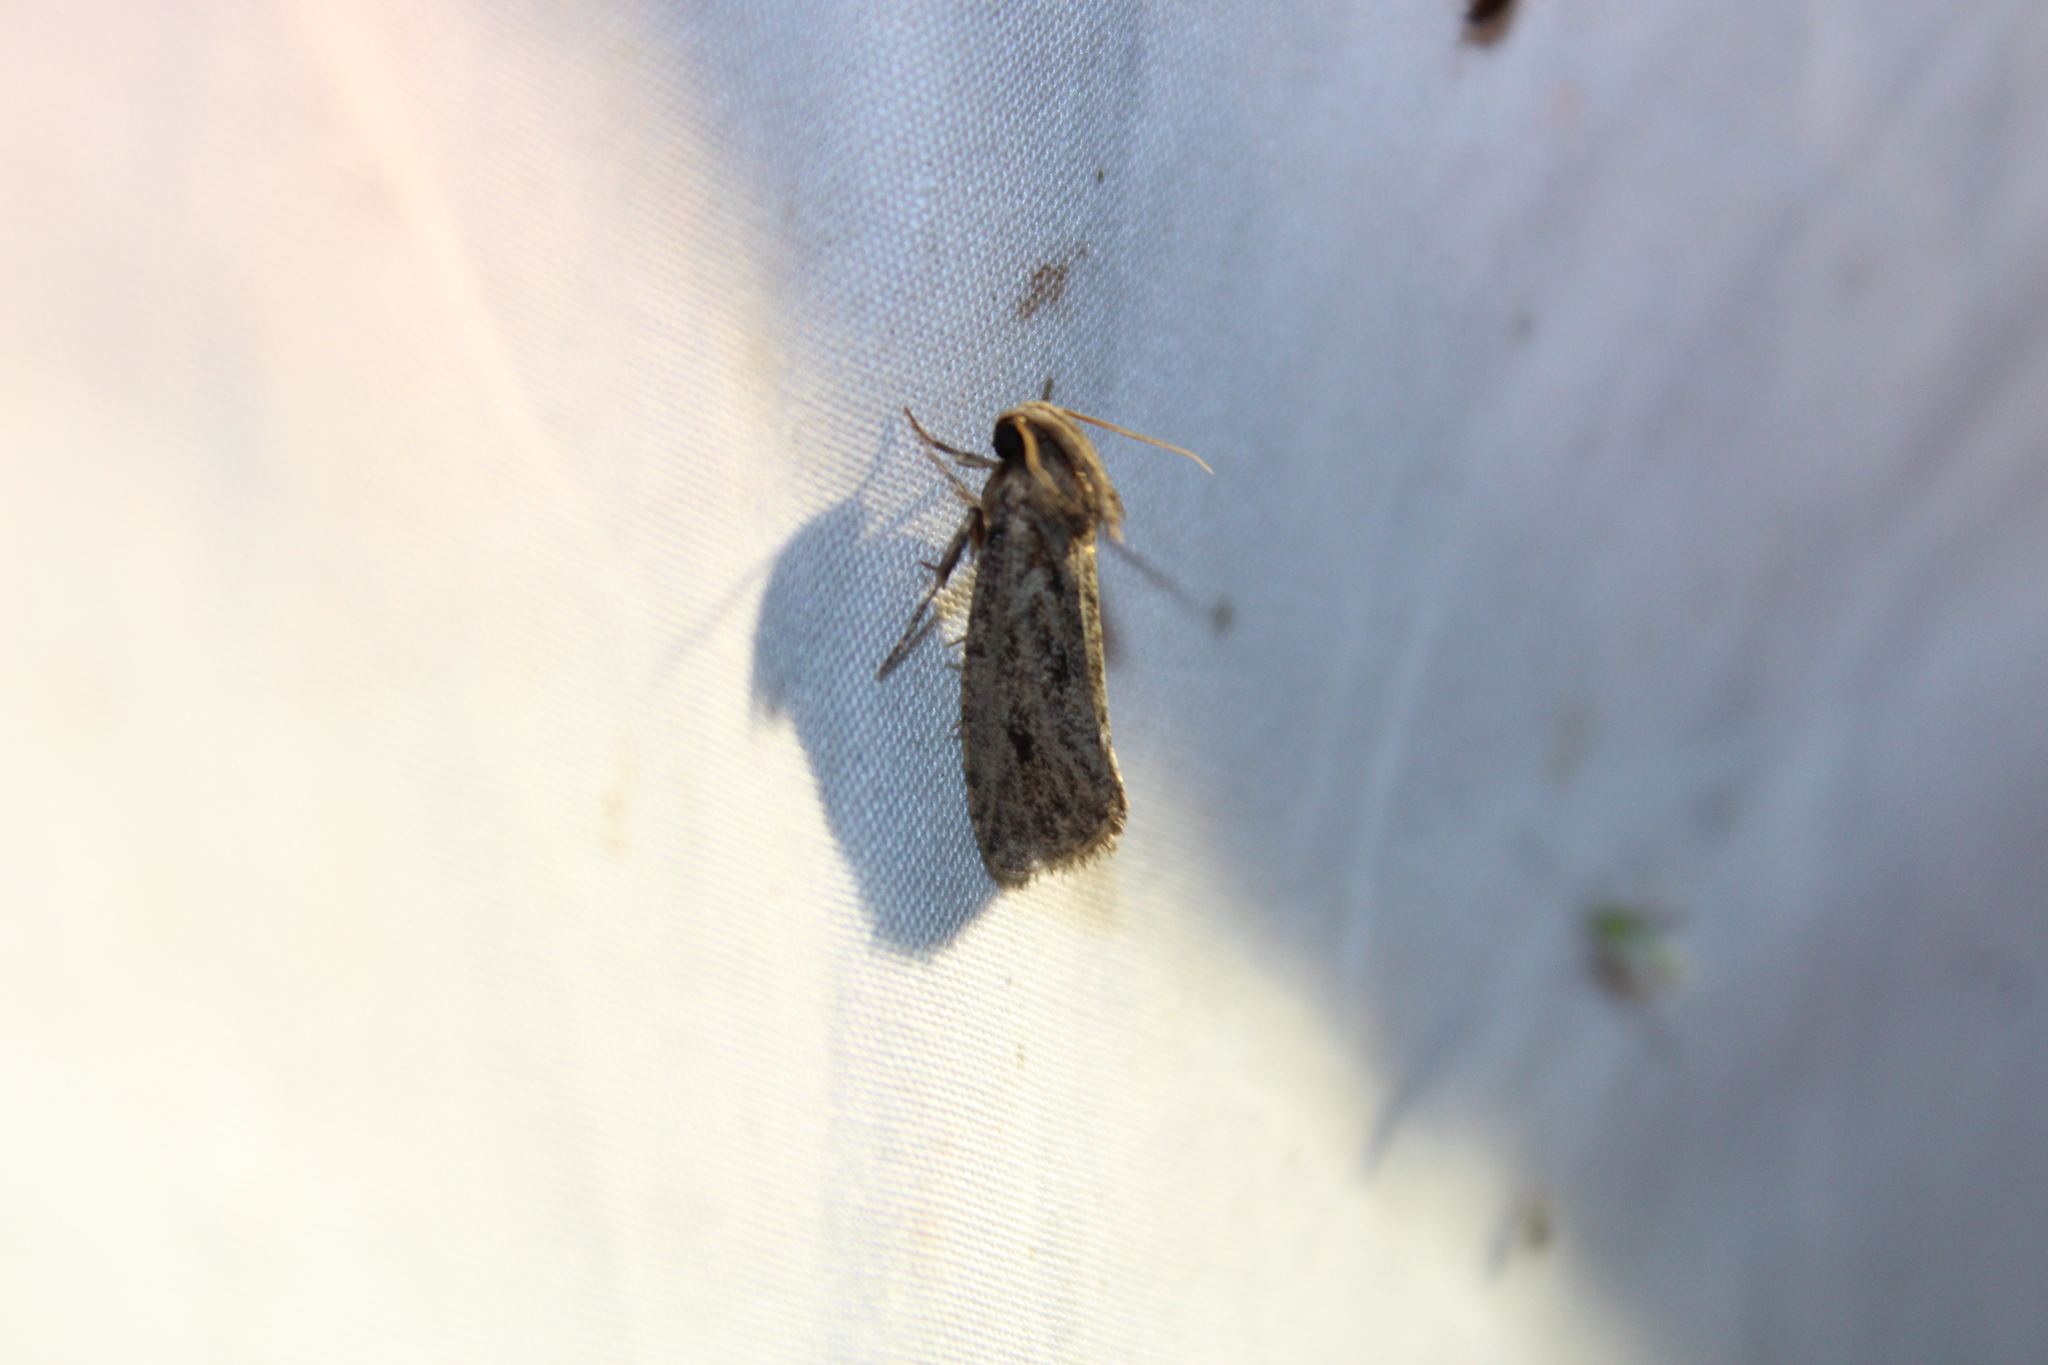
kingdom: Animalia
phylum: Arthropoda
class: Insecta
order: Lepidoptera
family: Tineidae
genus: Acrolophus
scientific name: Acrolophus popeanella
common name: Clemens' grass tubeworm moth
